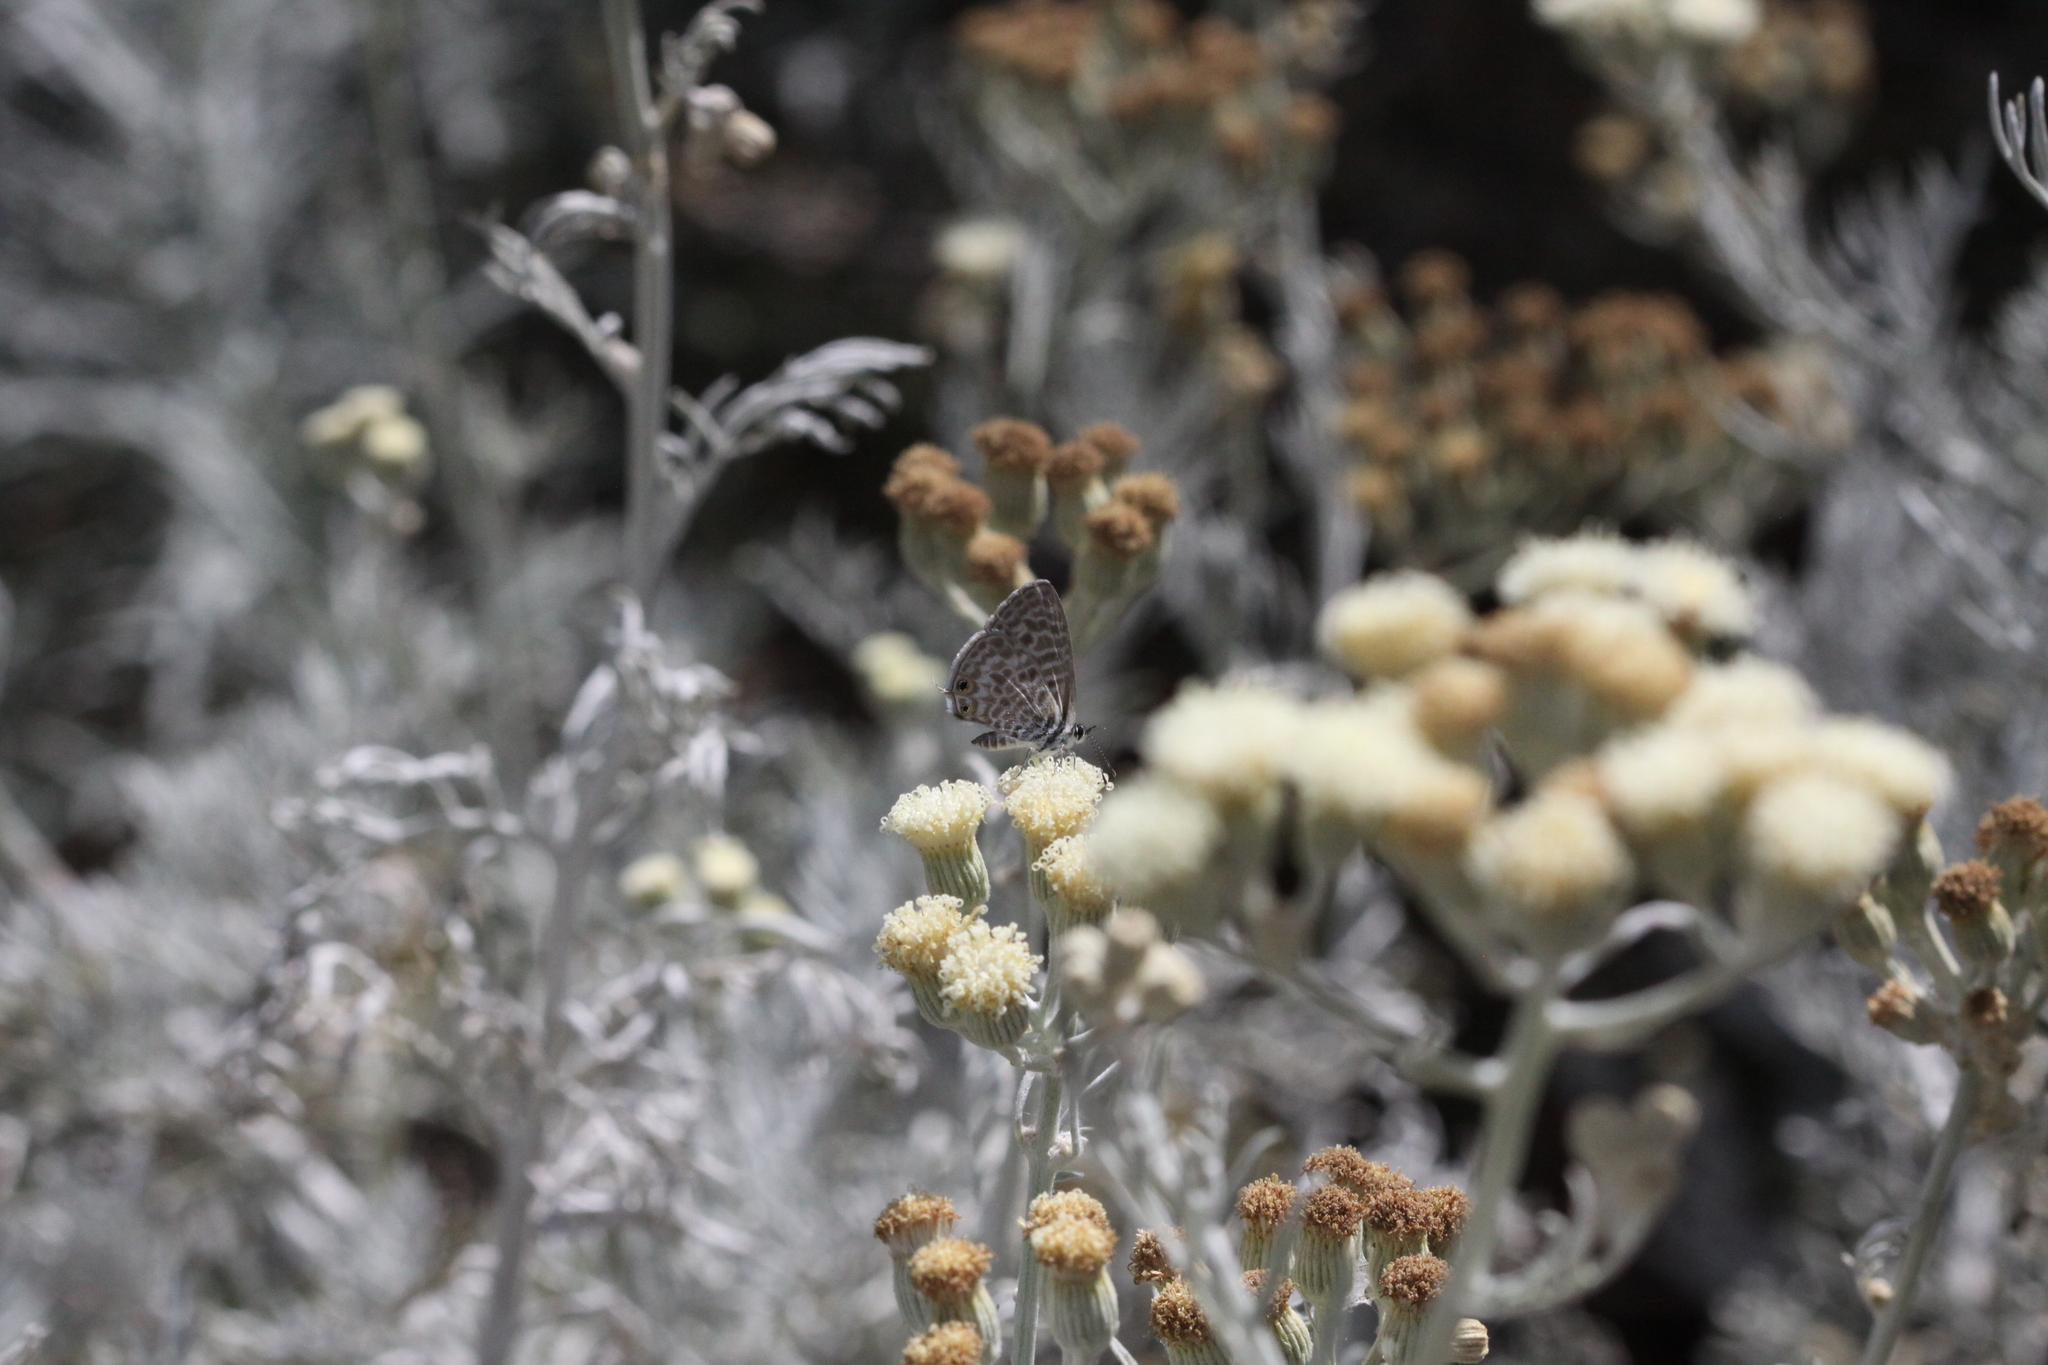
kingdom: Animalia
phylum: Arthropoda
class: Insecta
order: Lepidoptera
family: Lycaenidae
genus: Leptotes
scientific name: Leptotes pirithous
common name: Lang's short-tailed blue
